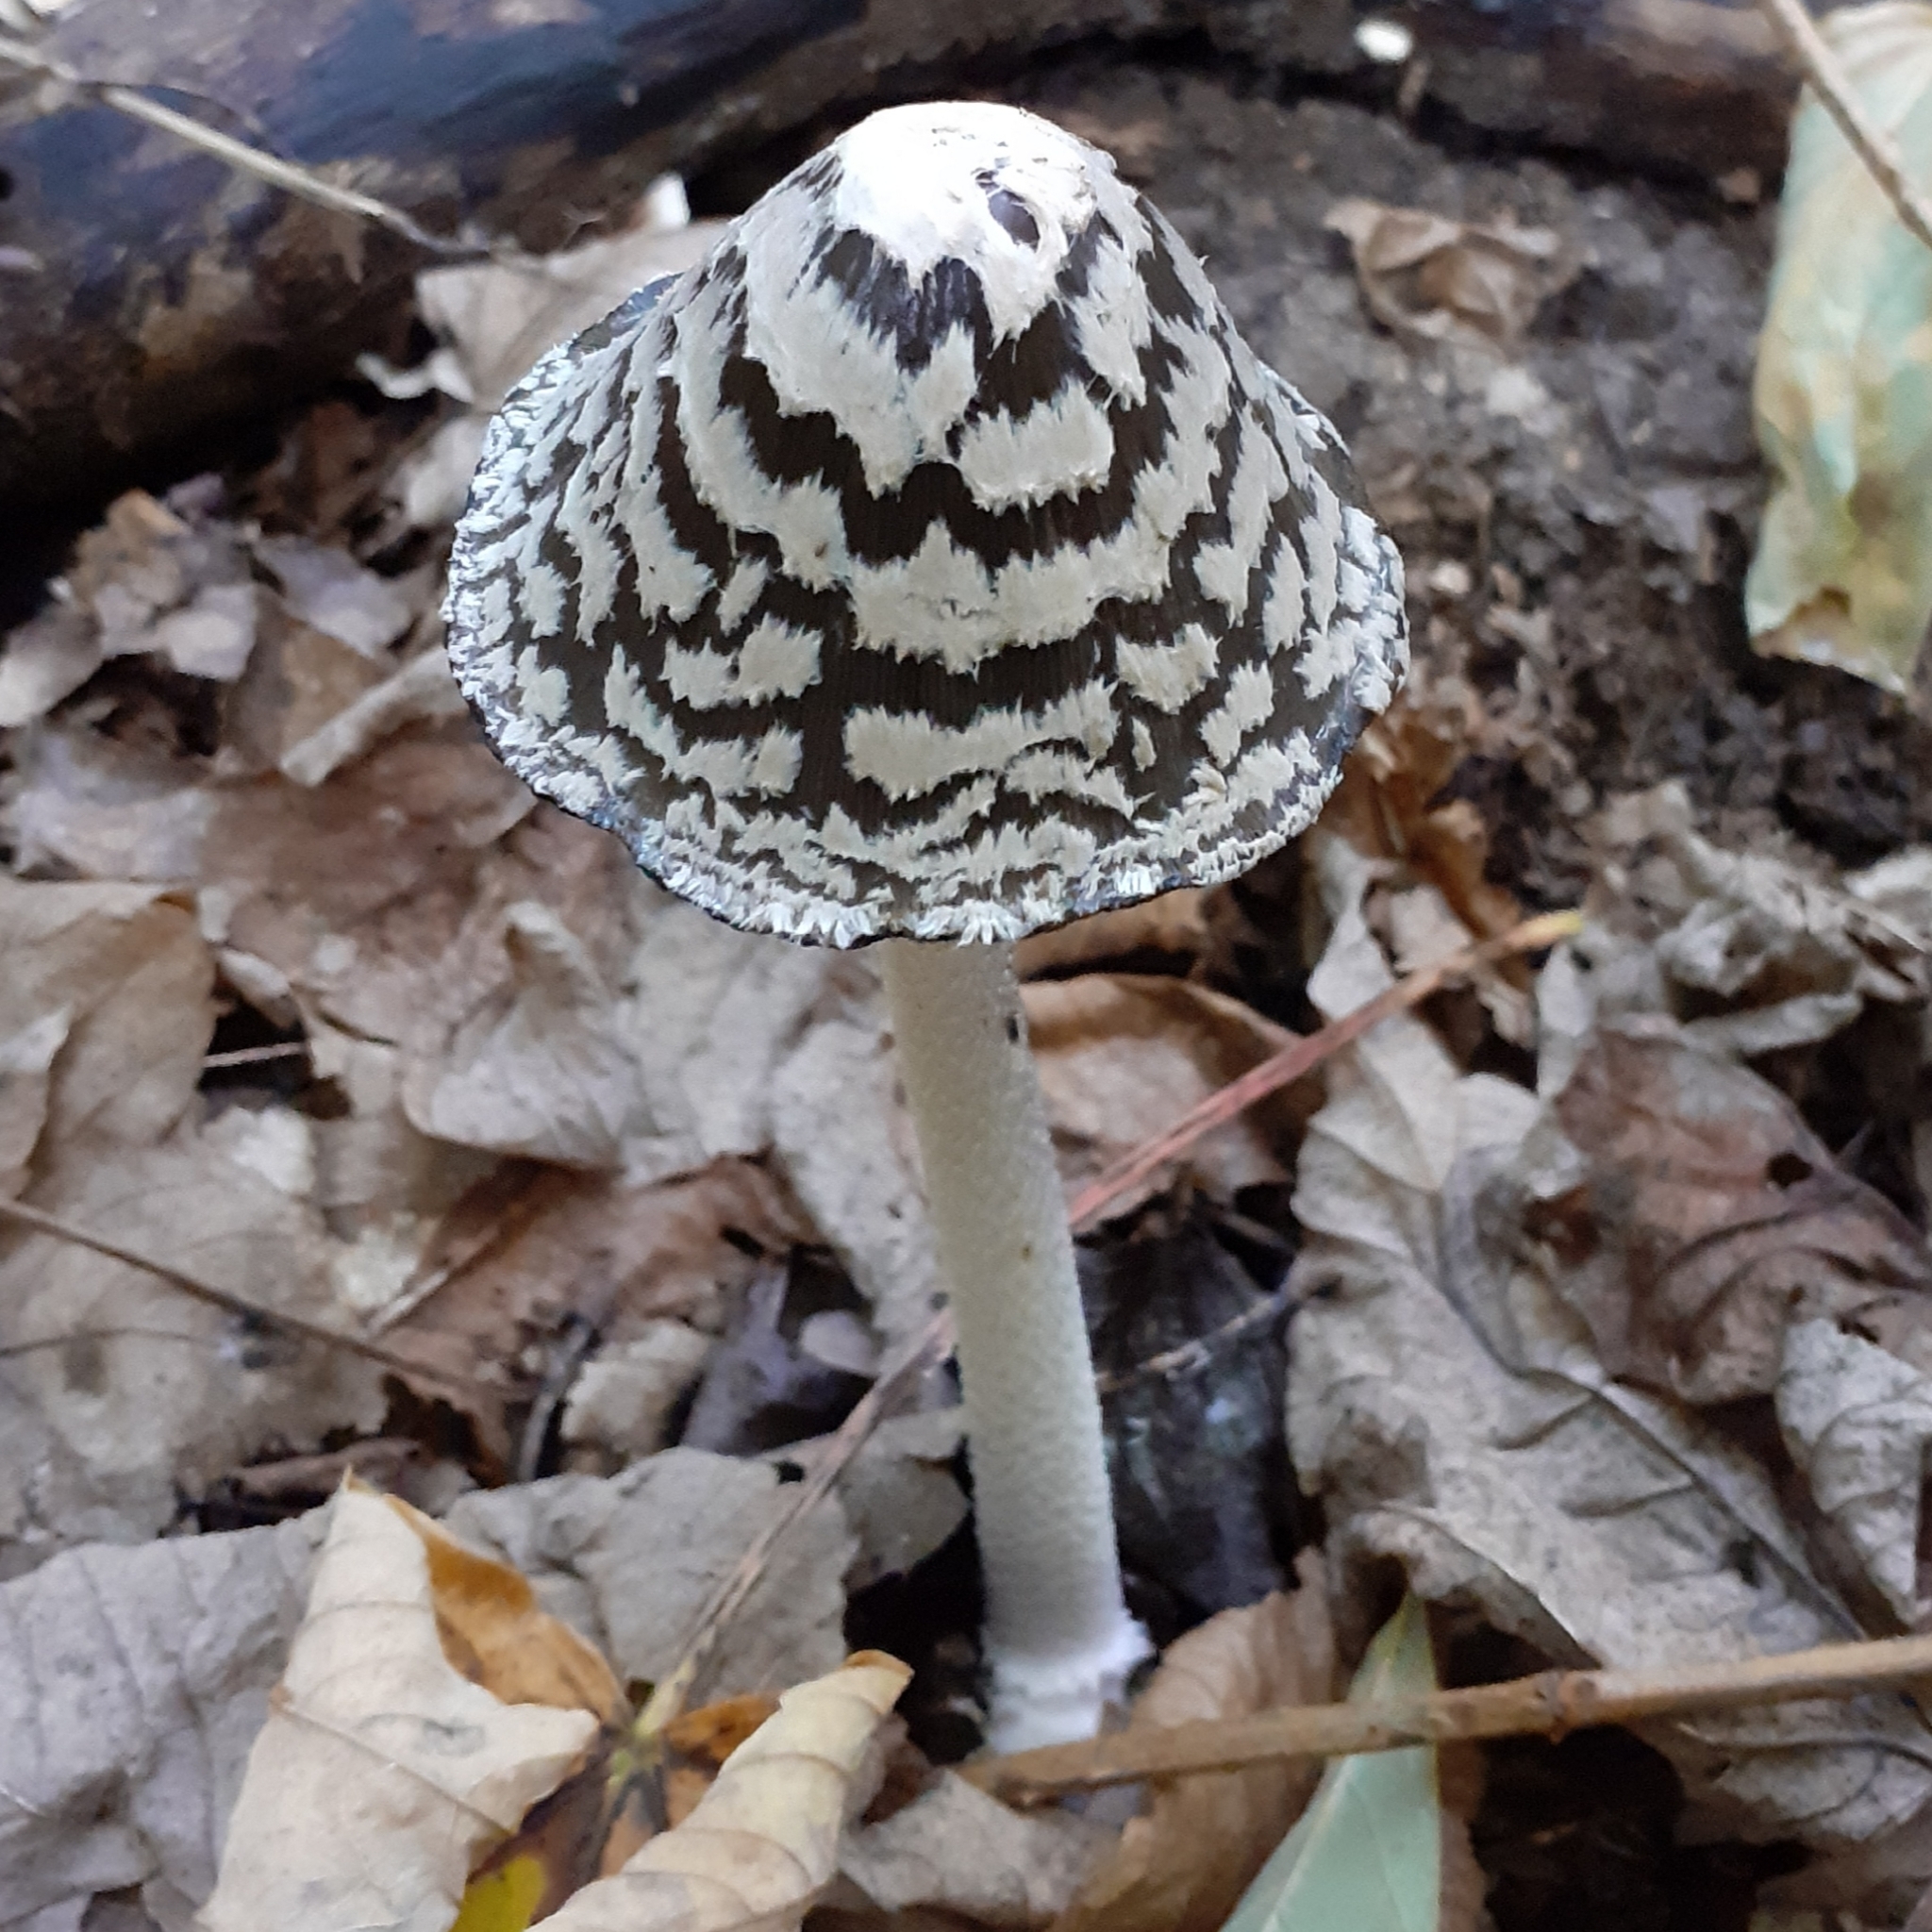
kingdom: Fungi
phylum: Basidiomycota
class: Agaricomycetes
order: Agaricales
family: Psathyrellaceae
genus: Coprinopsis
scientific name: Coprinopsis picacea
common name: Magpie inkcap
